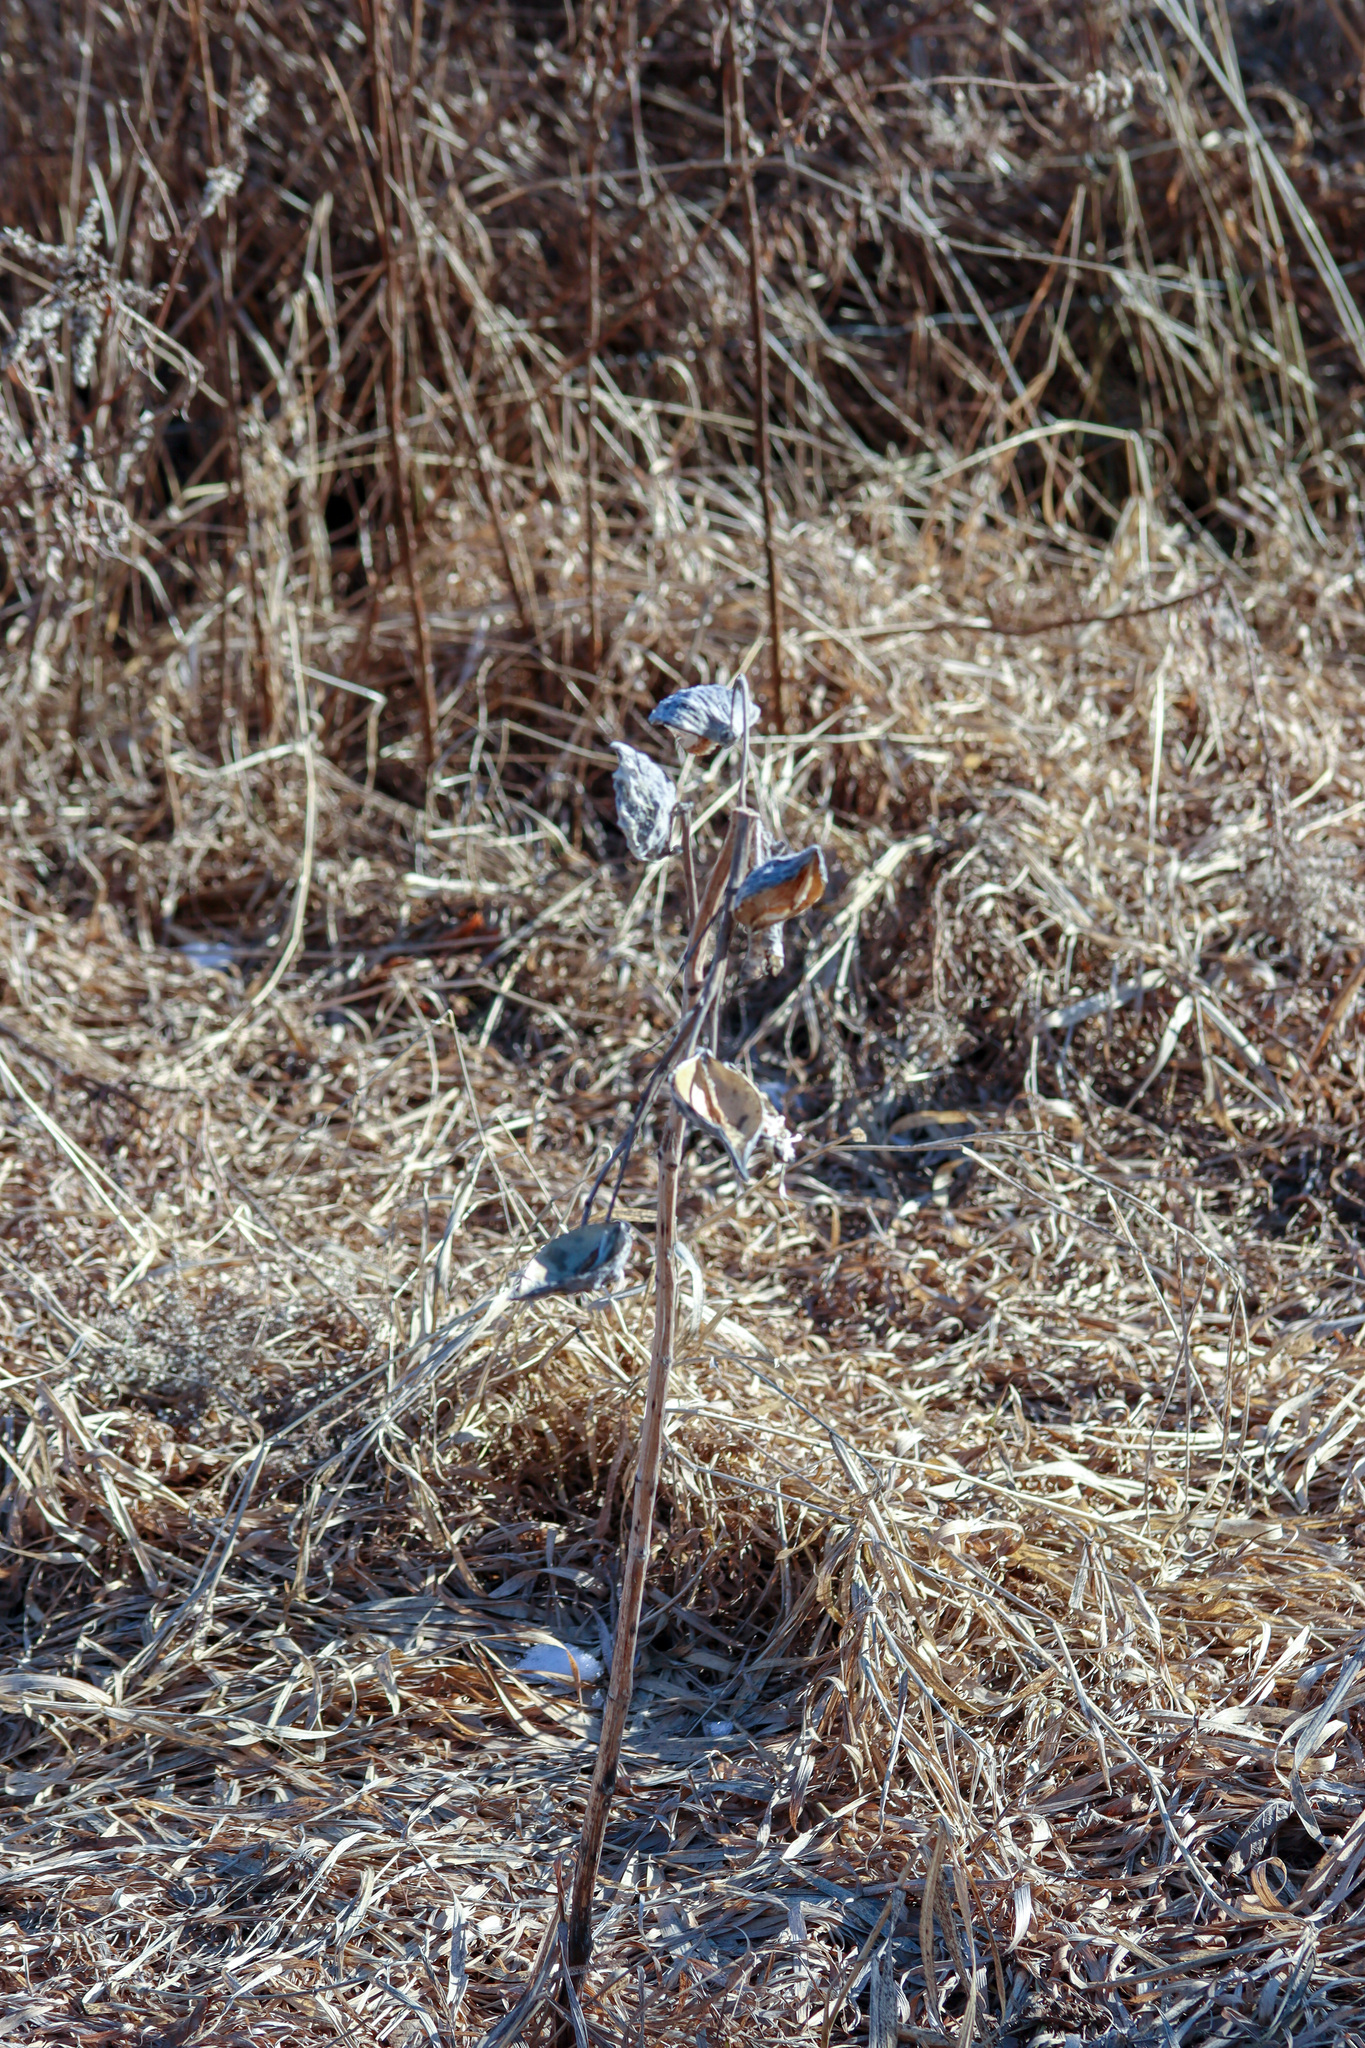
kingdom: Plantae
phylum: Tracheophyta
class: Magnoliopsida
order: Gentianales
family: Apocynaceae
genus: Asclepias
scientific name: Asclepias syriaca
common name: Common milkweed
